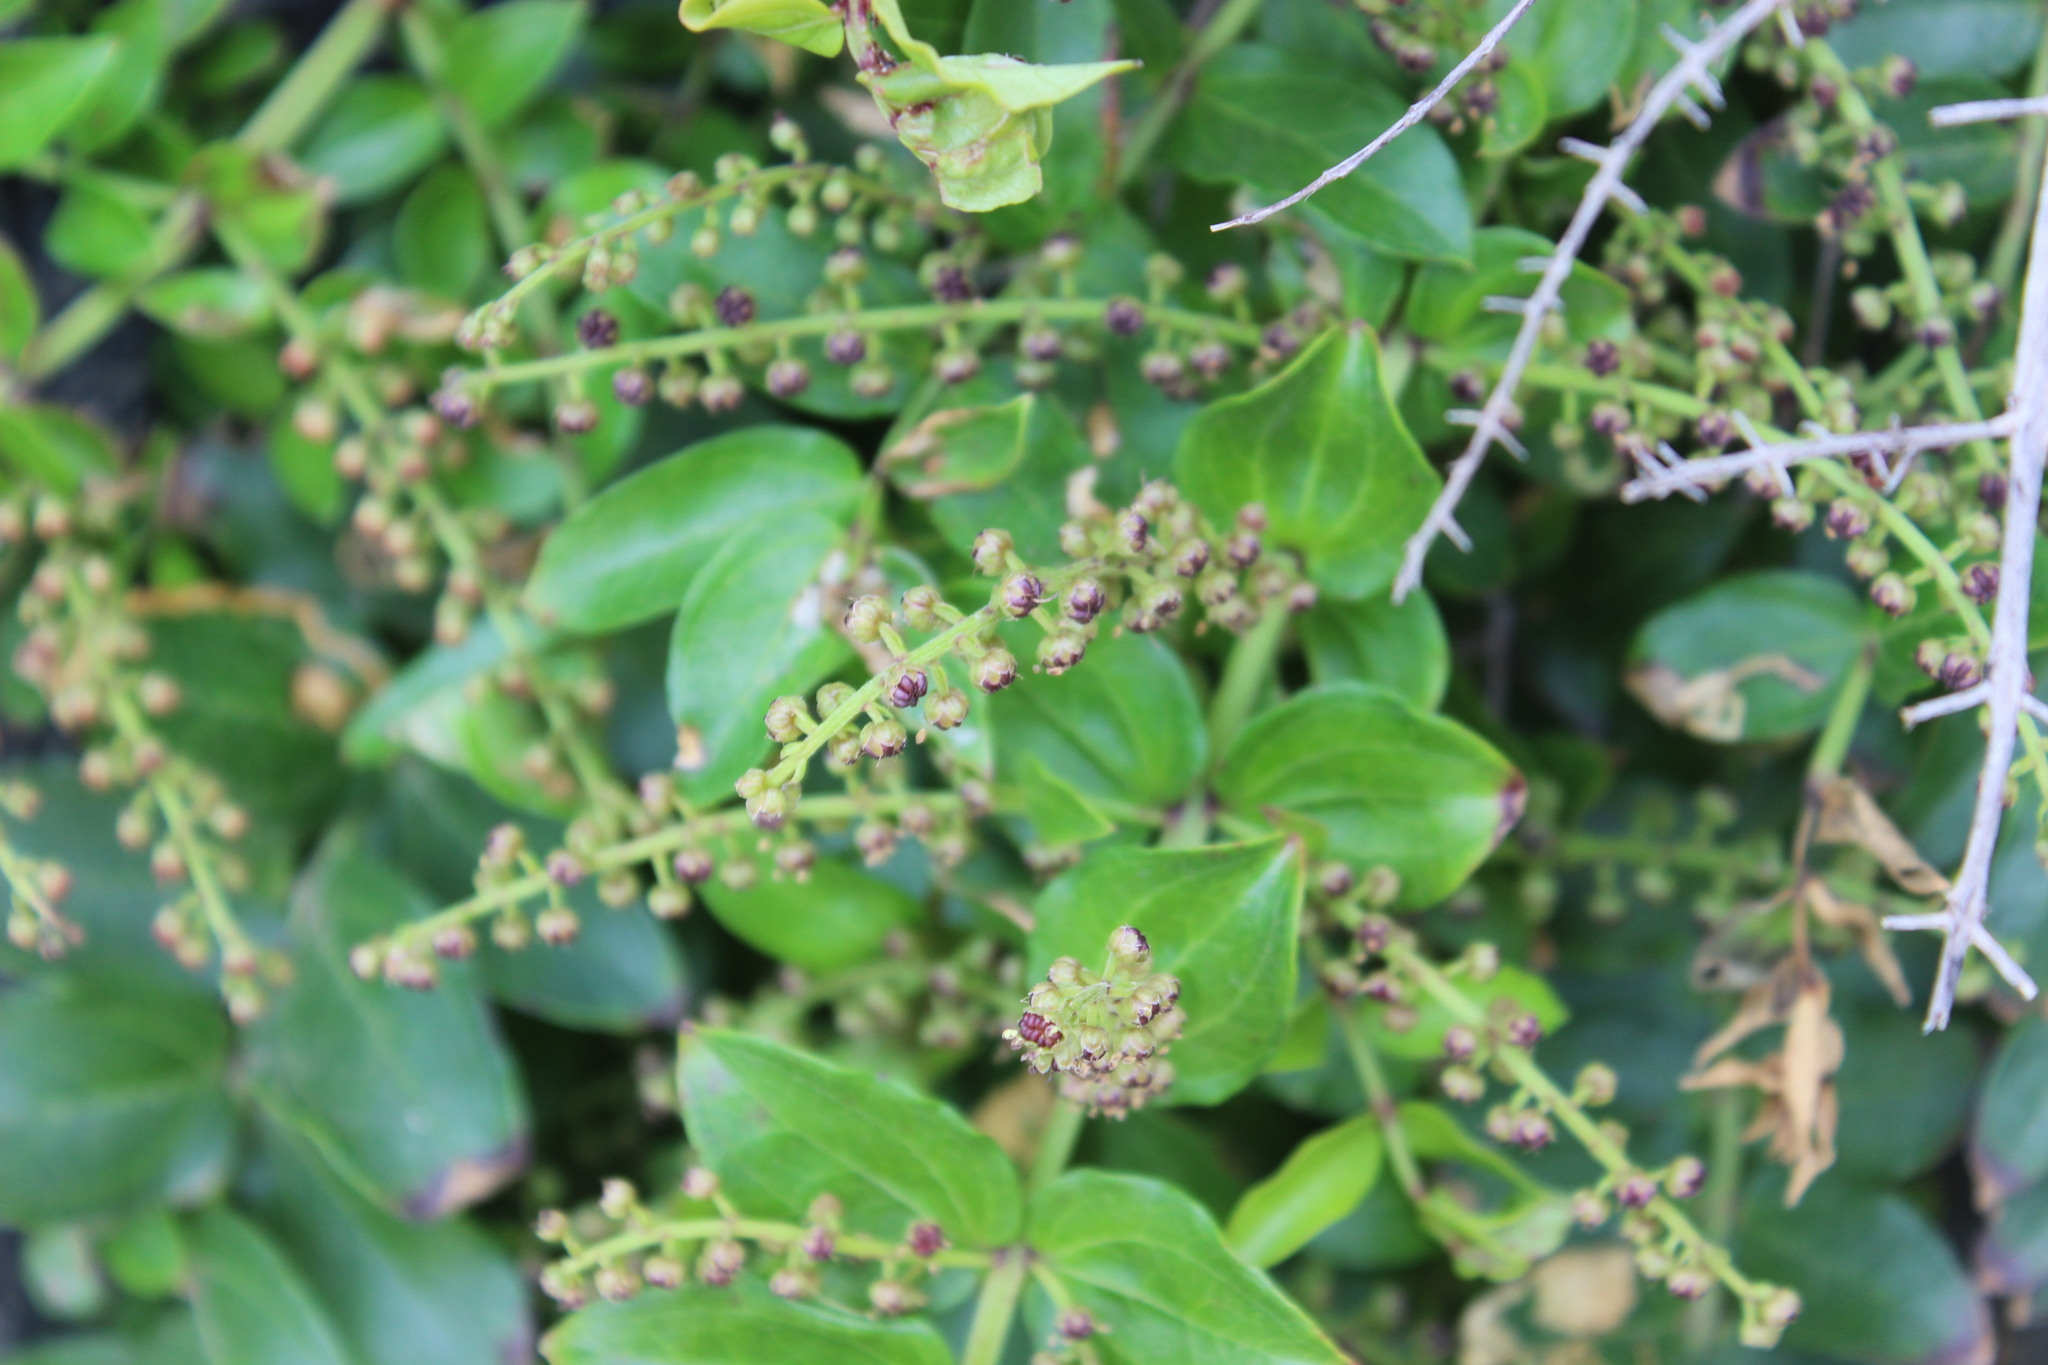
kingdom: Plantae
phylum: Tracheophyta
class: Magnoliopsida
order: Cucurbitales
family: Coriariaceae
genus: Coriaria
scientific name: Coriaria sarmentosa
